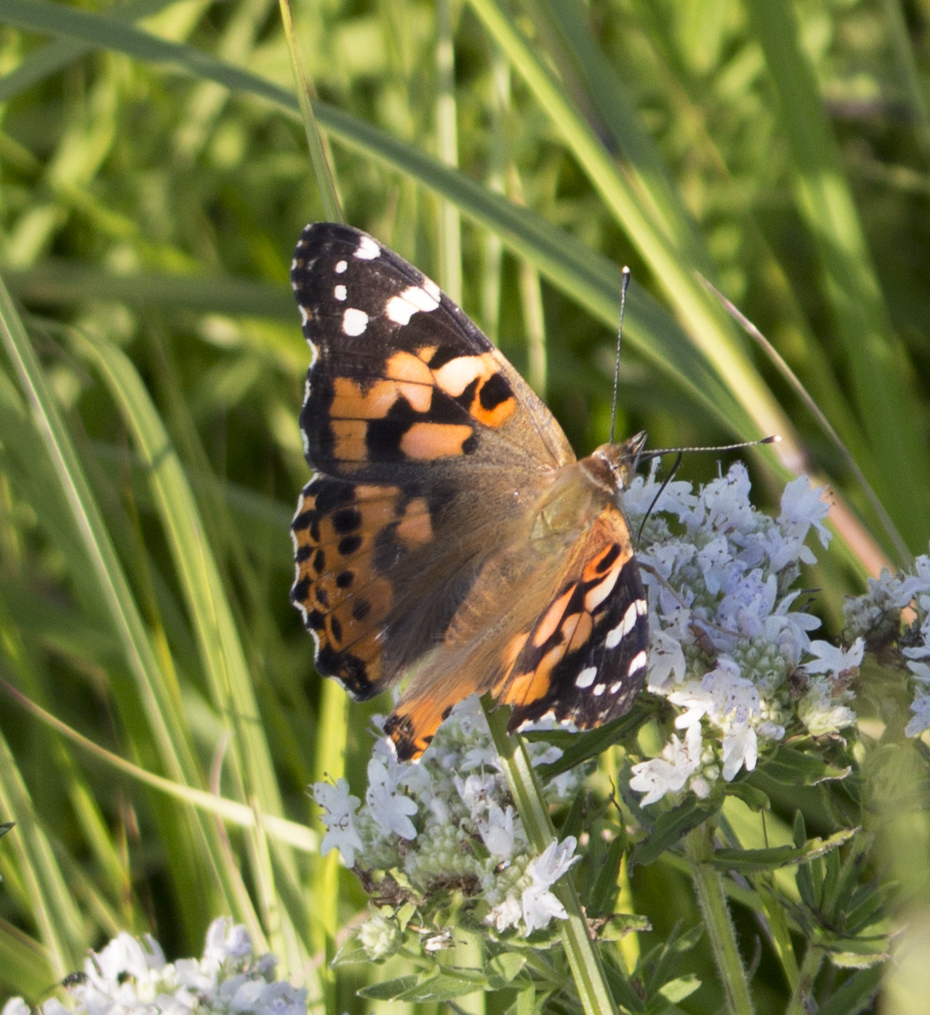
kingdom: Animalia
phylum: Arthropoda
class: Insecta
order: Lepidoptera
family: Nymphalidae
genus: Vanessa
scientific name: Vanessa cardui
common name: Painted lady
